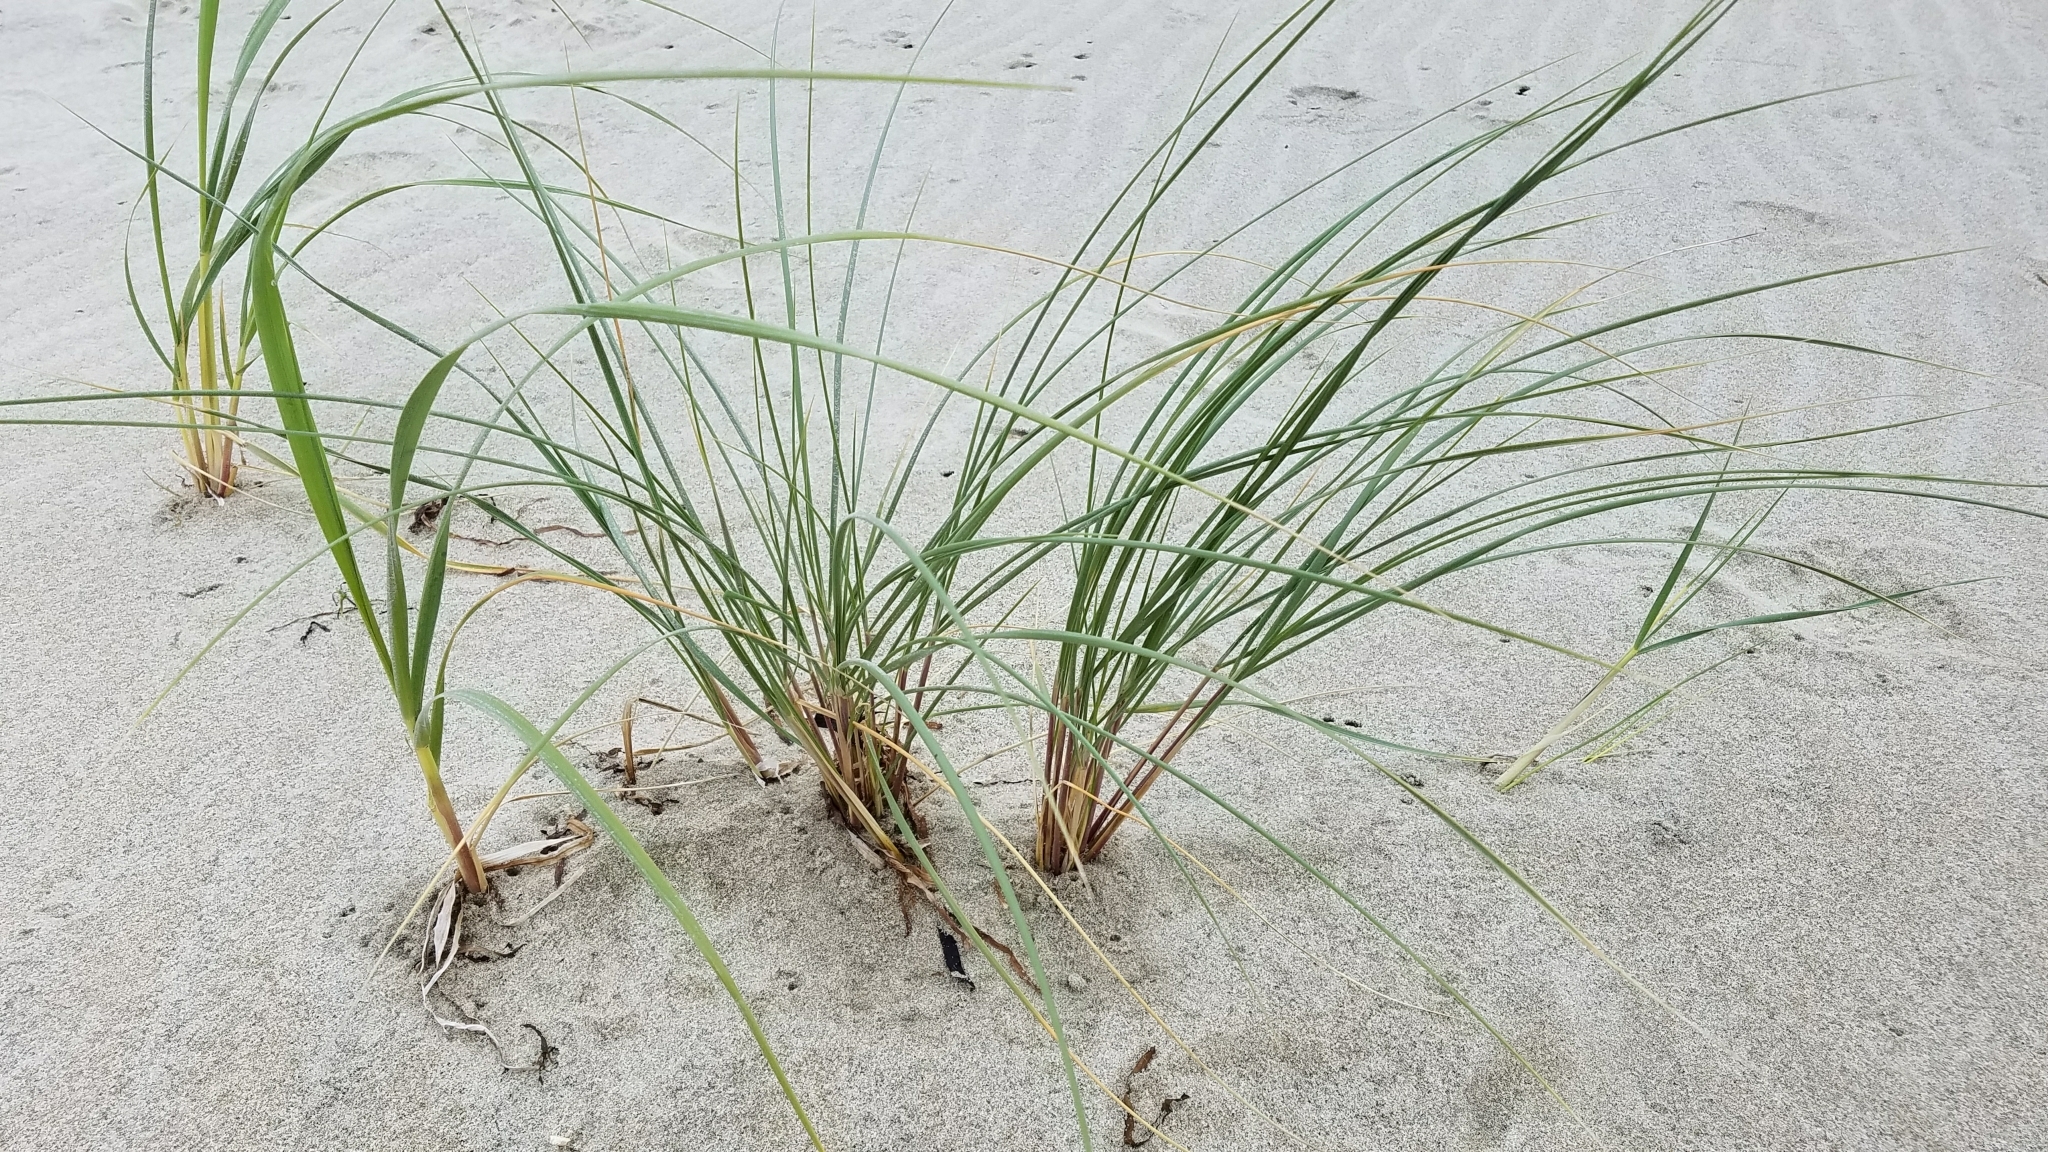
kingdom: Plantae
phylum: Tracheophyta
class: Liliopsida
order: Poales
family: Poaceae
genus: Calamagrostis
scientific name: Calamagrostis arenaria
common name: European beachgrass
